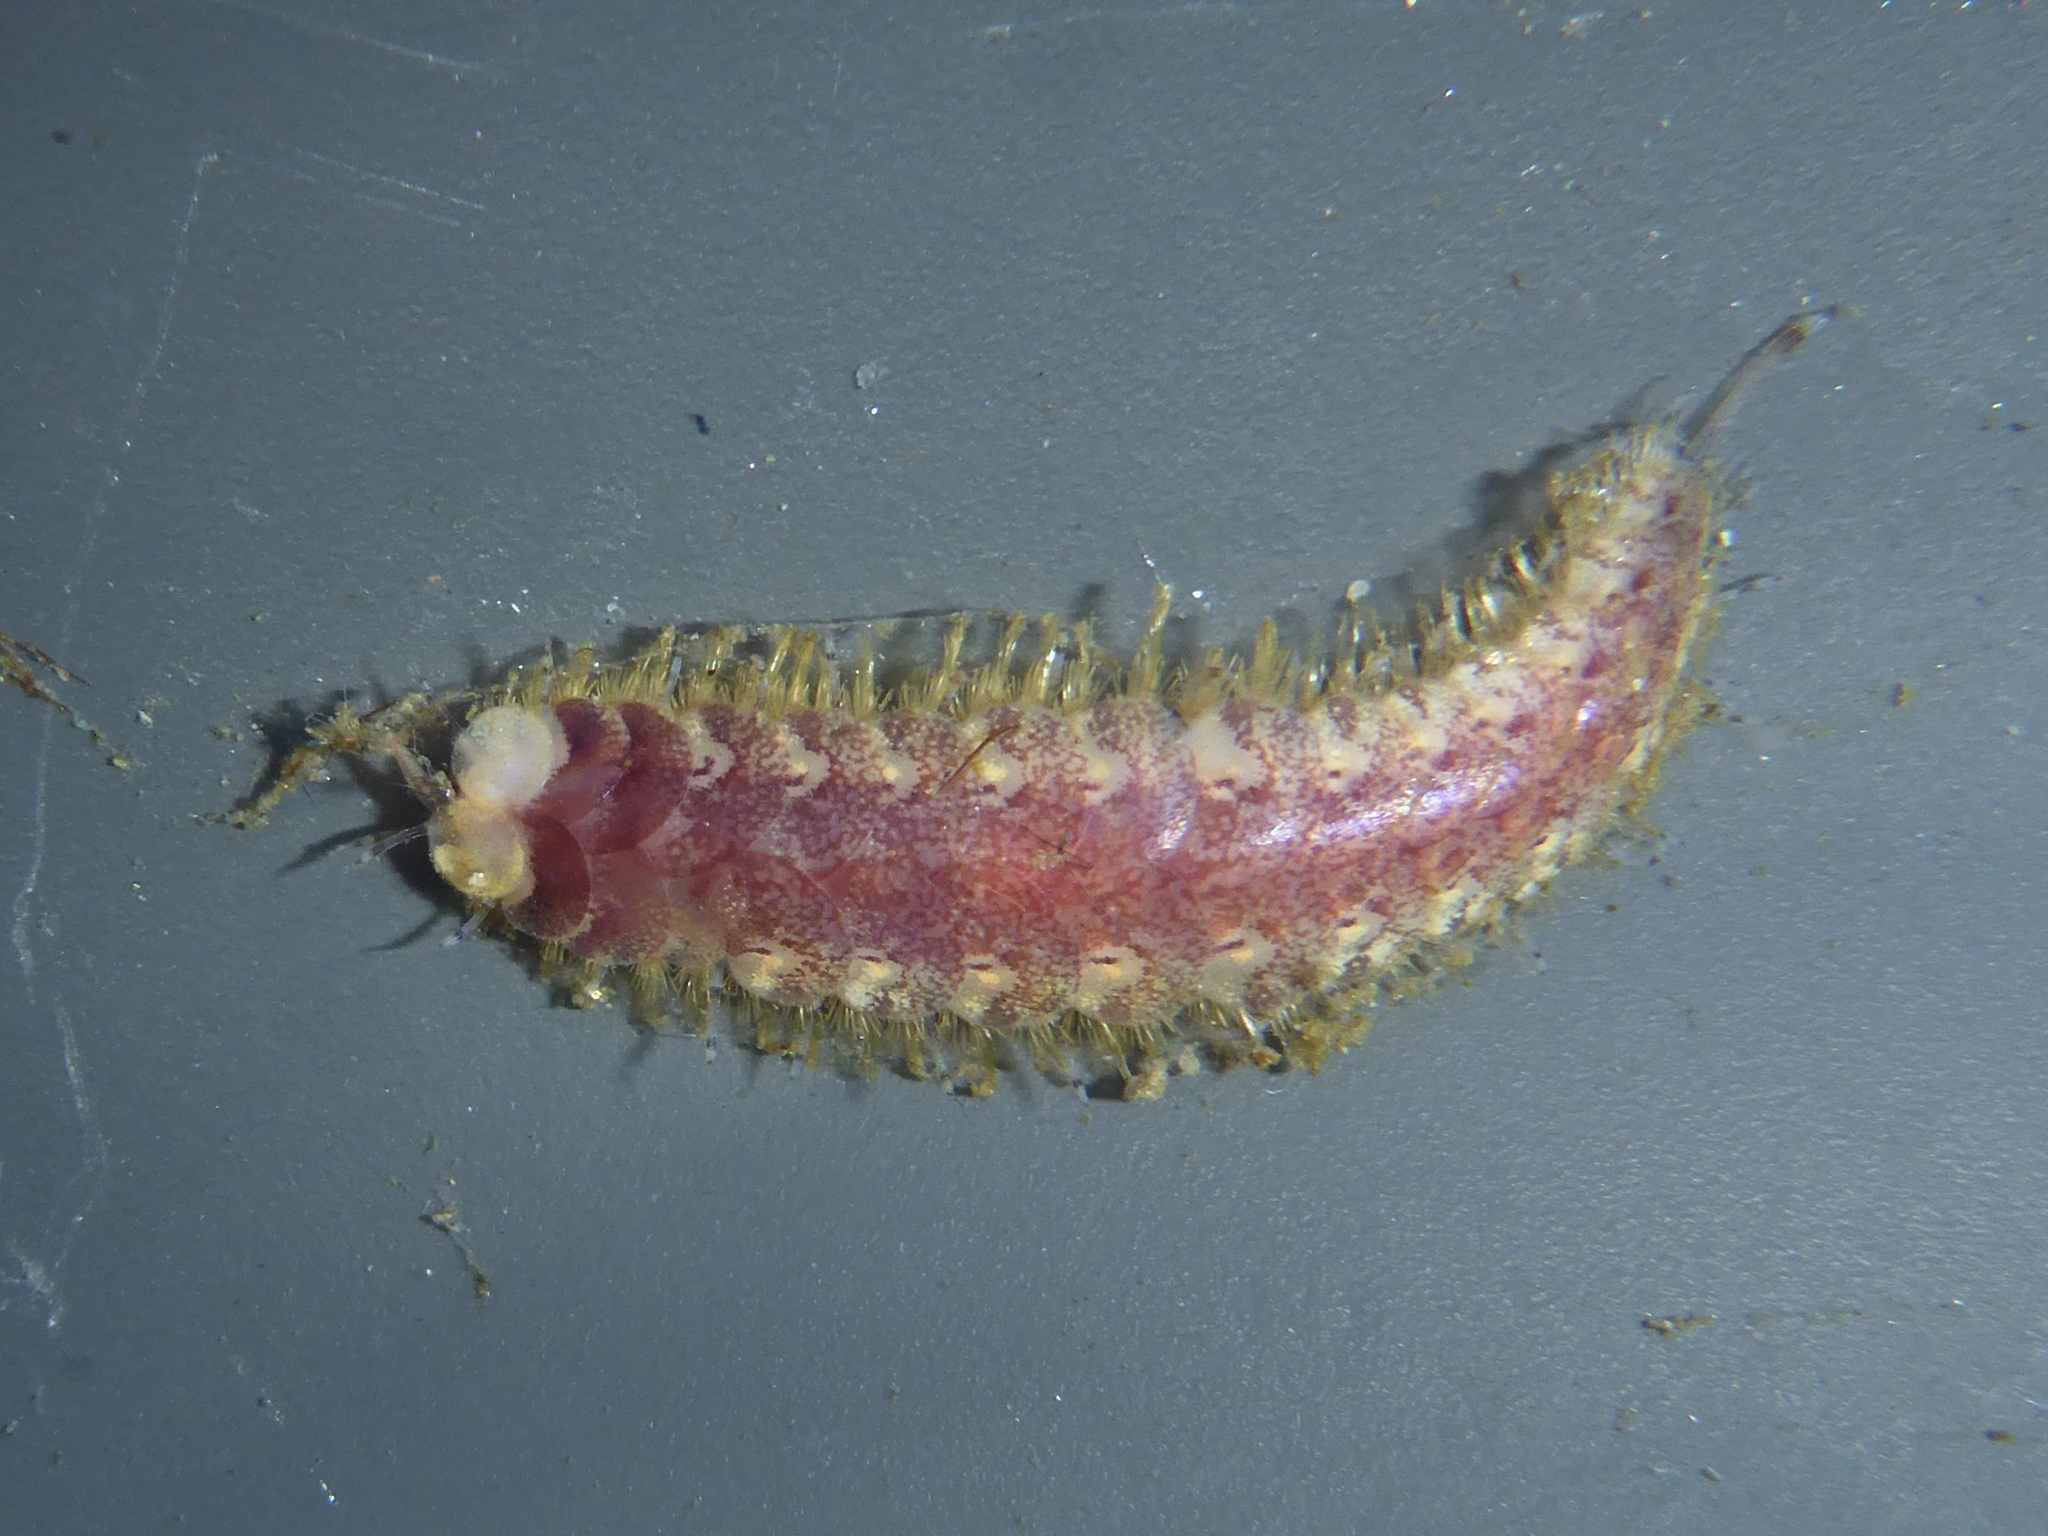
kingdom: Animalia
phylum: Annelida
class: Polychaeta
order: Phyllodocida
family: Polynoidae
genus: Harmothoe
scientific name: Harmothoe imbricata
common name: Fifteen-scaled worm
